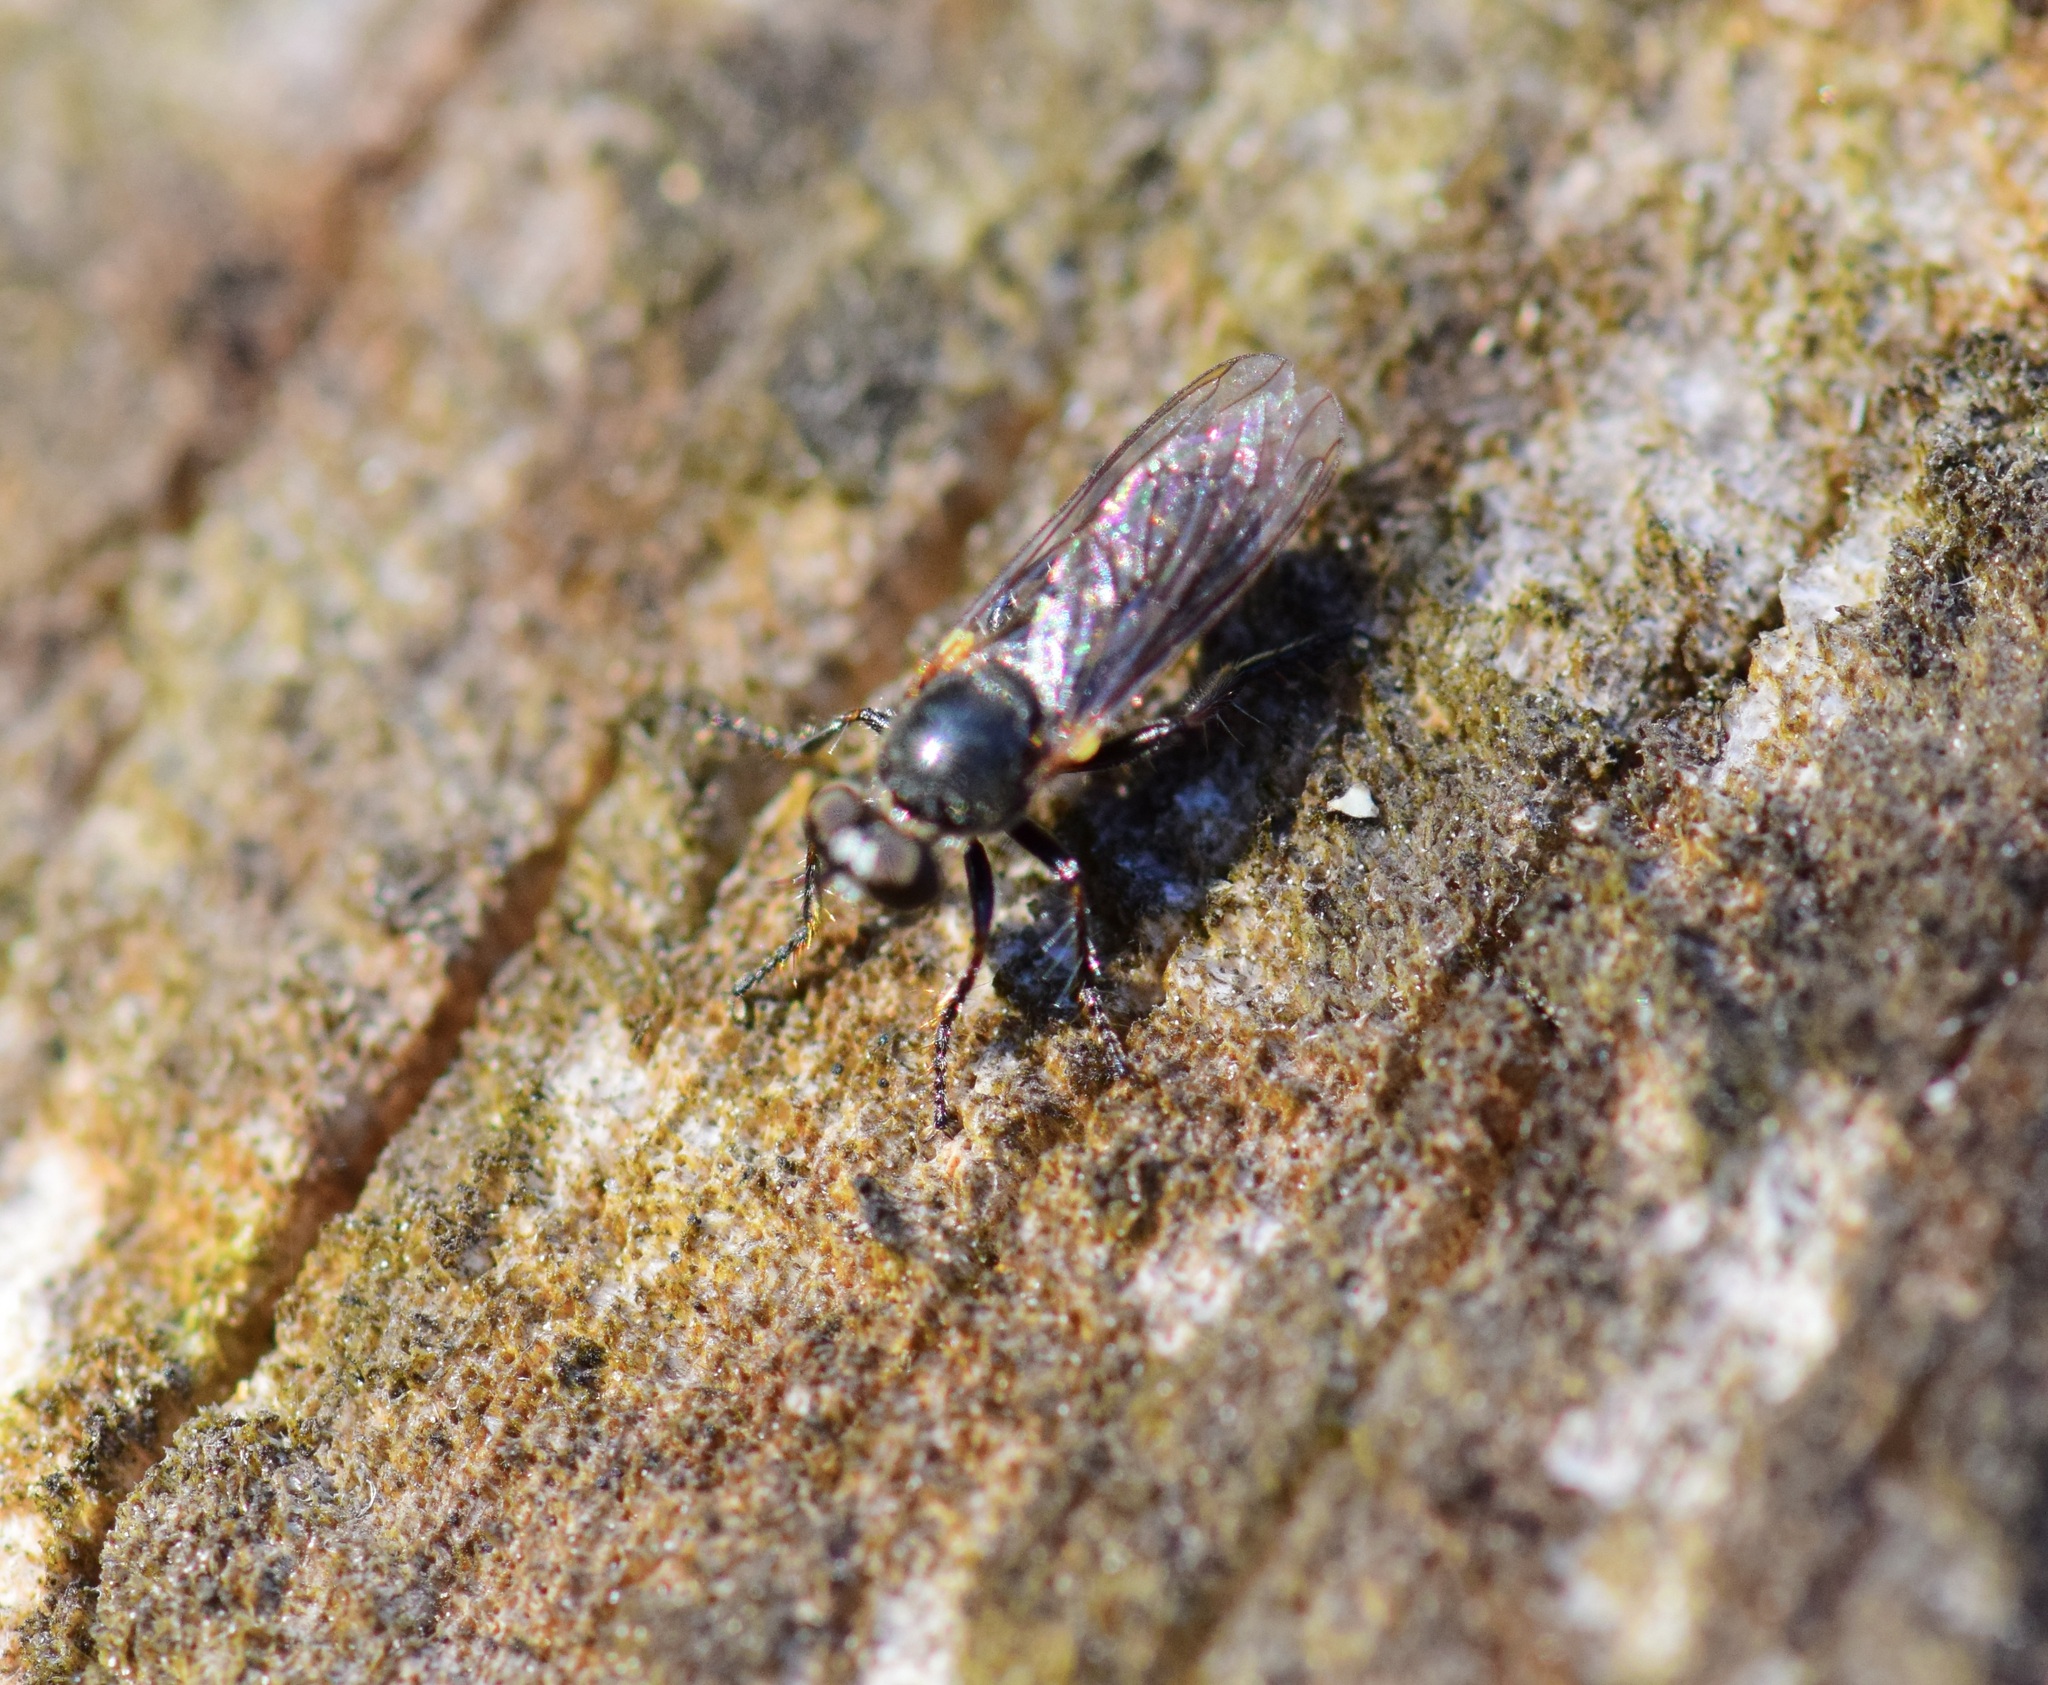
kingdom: Animalia
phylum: Arthropoda
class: Insecta
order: Diptera
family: Asilidae
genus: Atomosia
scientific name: Atomosia puella
